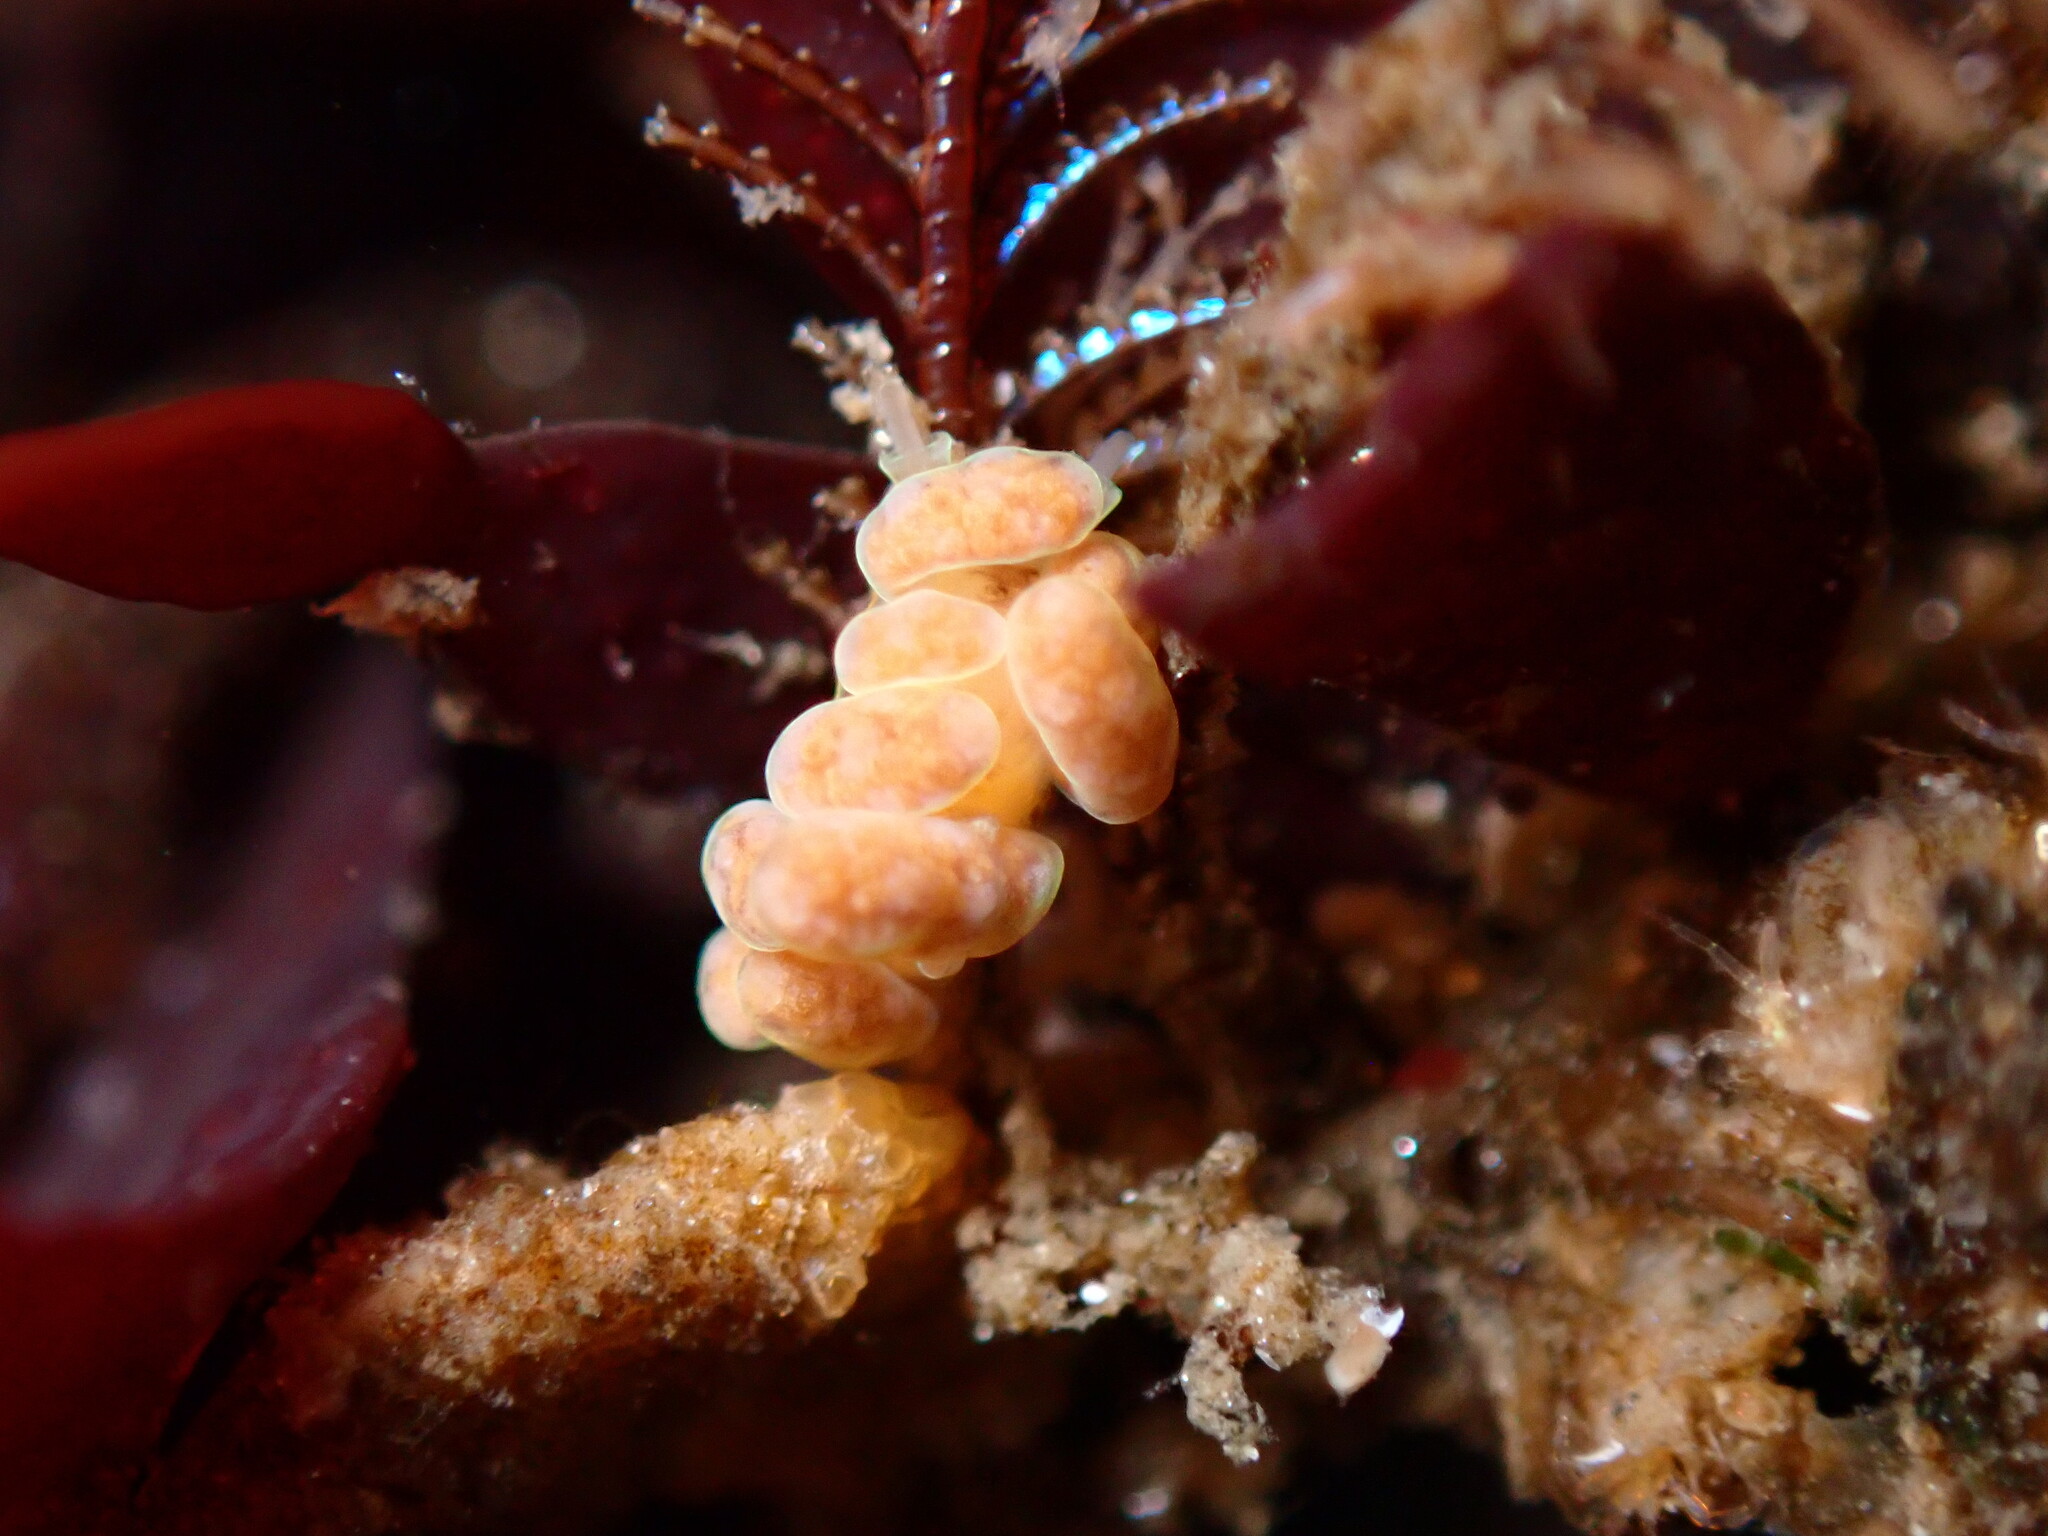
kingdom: Animalia
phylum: Mollusca
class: Gastropoda
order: Nudibranchia
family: Dotidae
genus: Doto
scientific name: Doto columbiana
